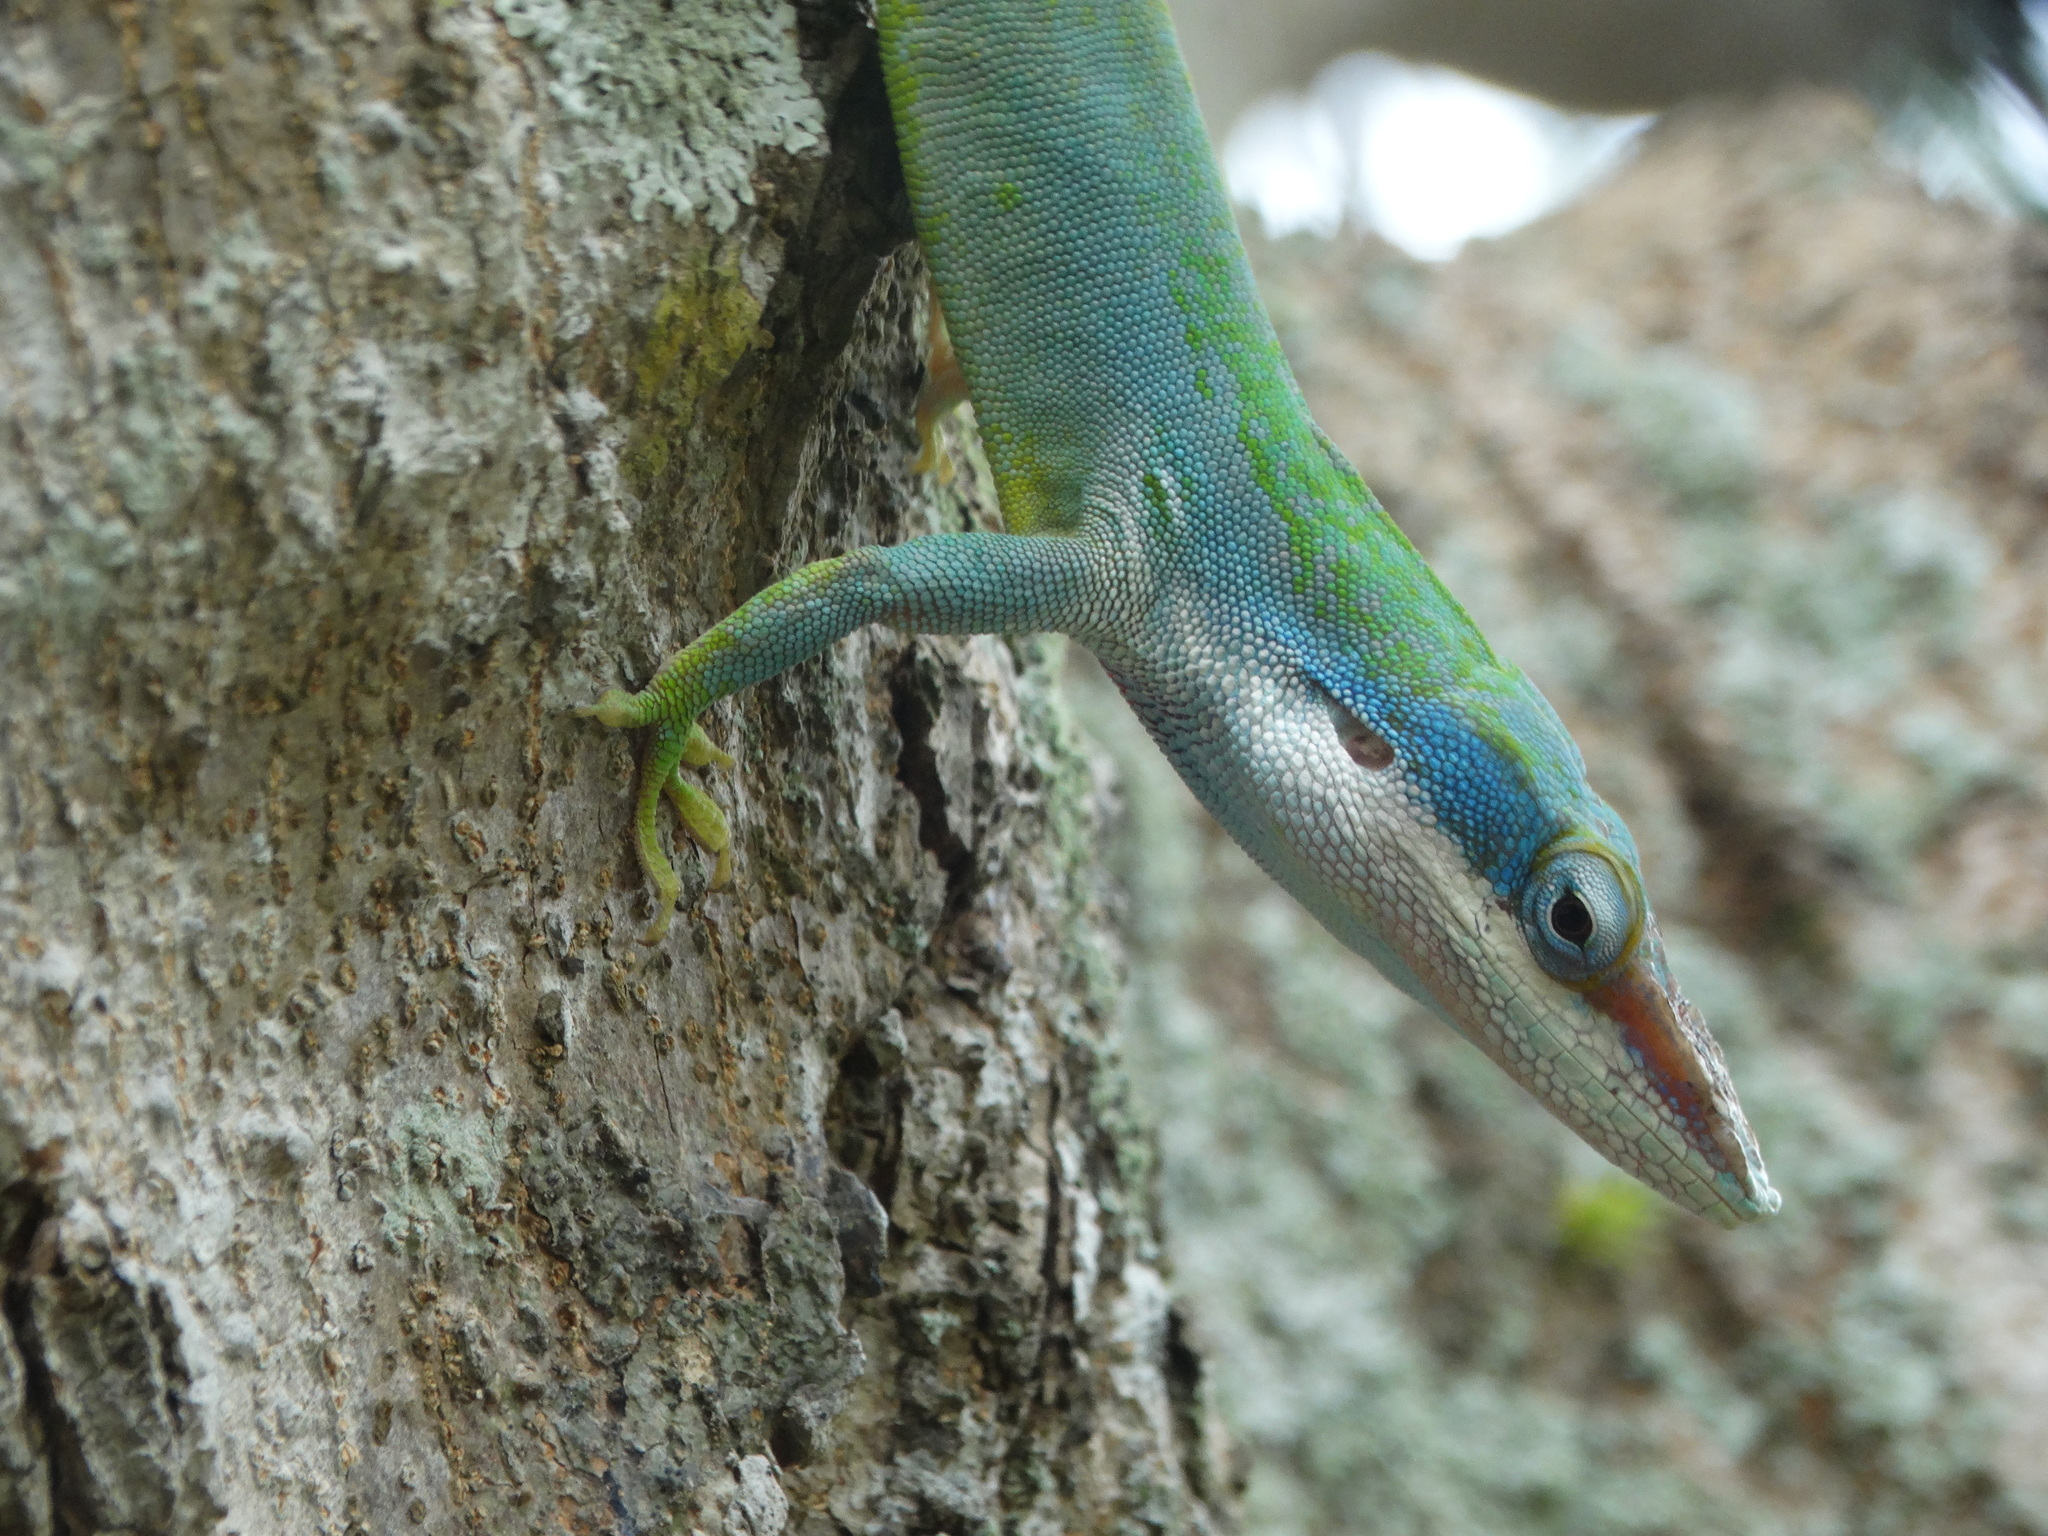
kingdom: Animalia
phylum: Chordata
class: Squamata
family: Dactyloidae
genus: Anolis
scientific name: Anolis allisoni
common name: Allison's anole
